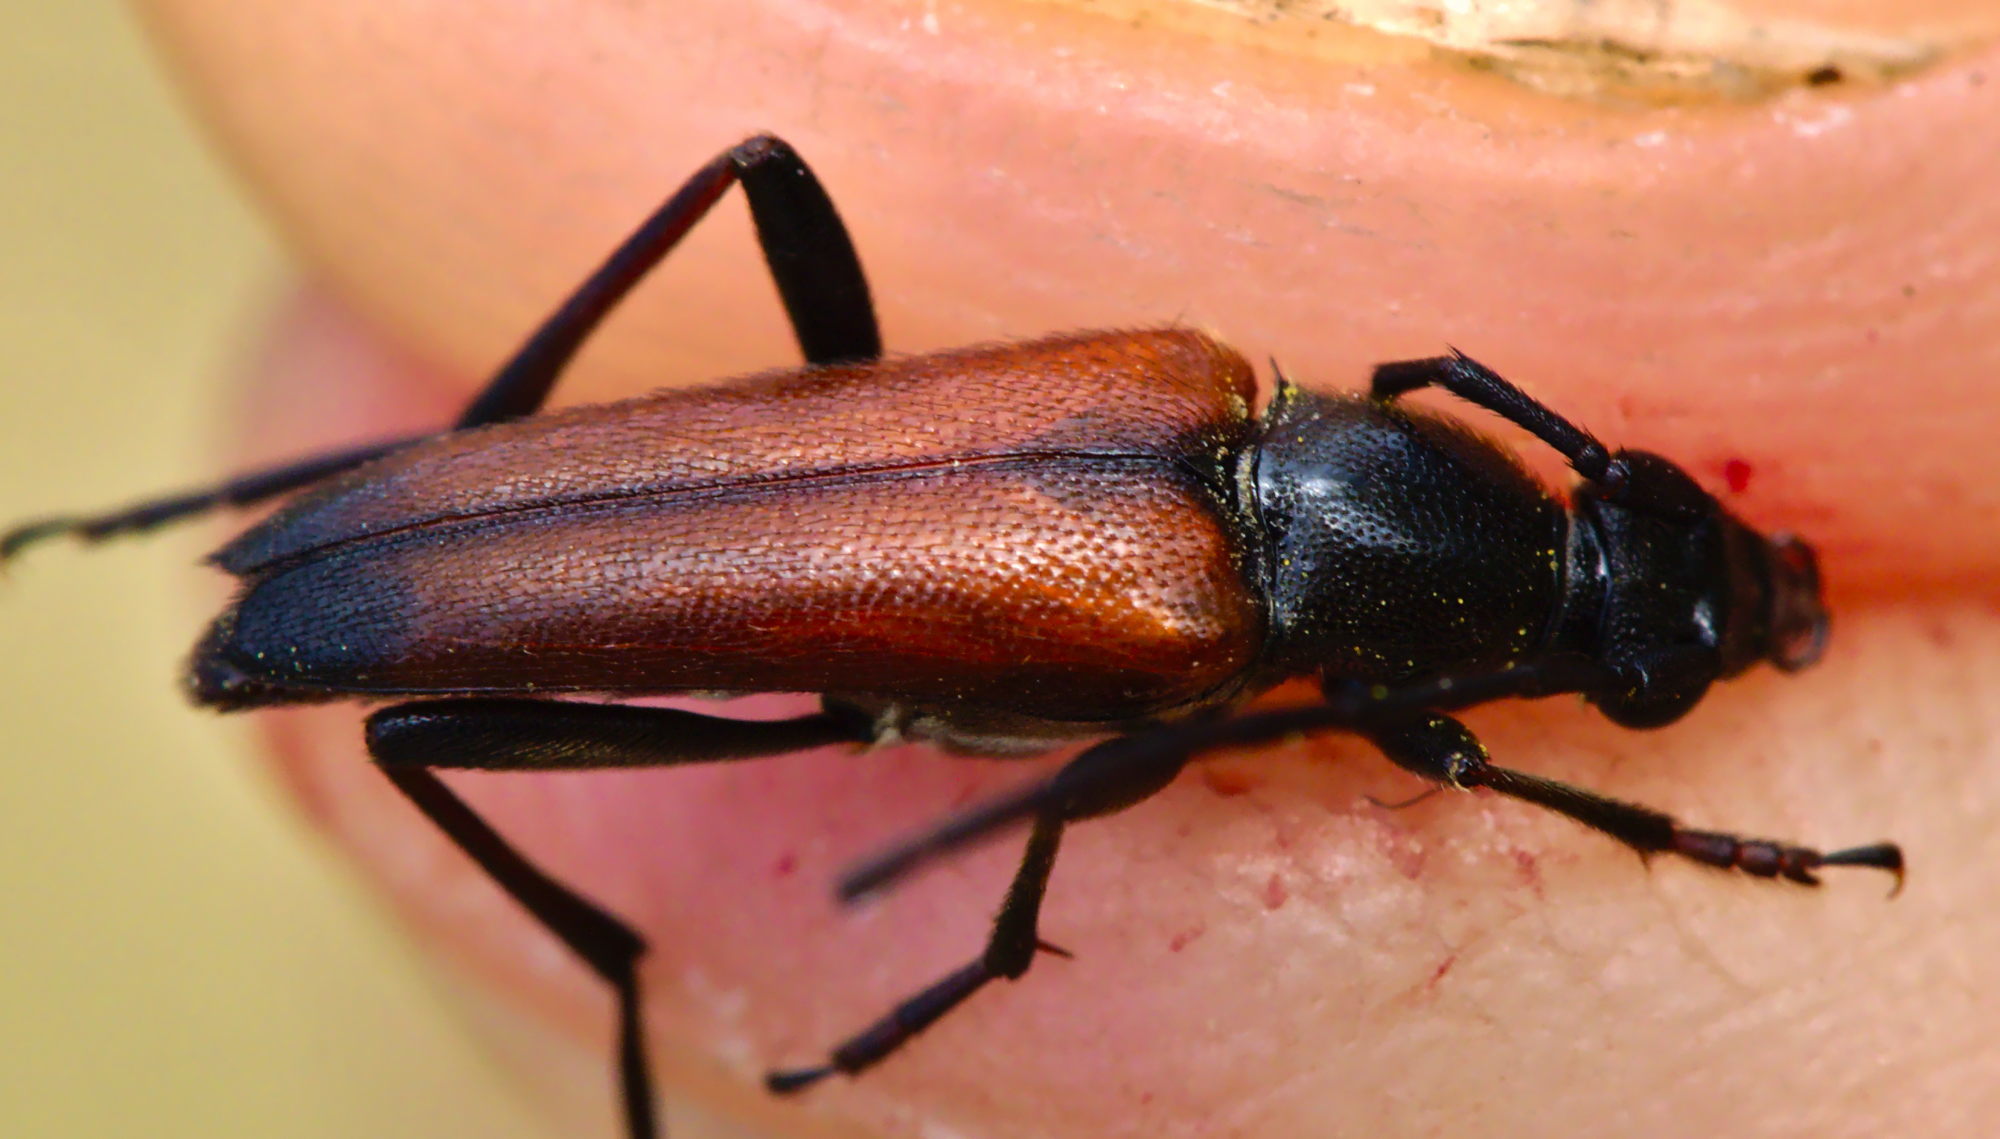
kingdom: Animalia
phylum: Arthropoda
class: Insecta
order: Coleoptera
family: Cerambycidae
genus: Stenurella
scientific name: Stenurella bifasciata
